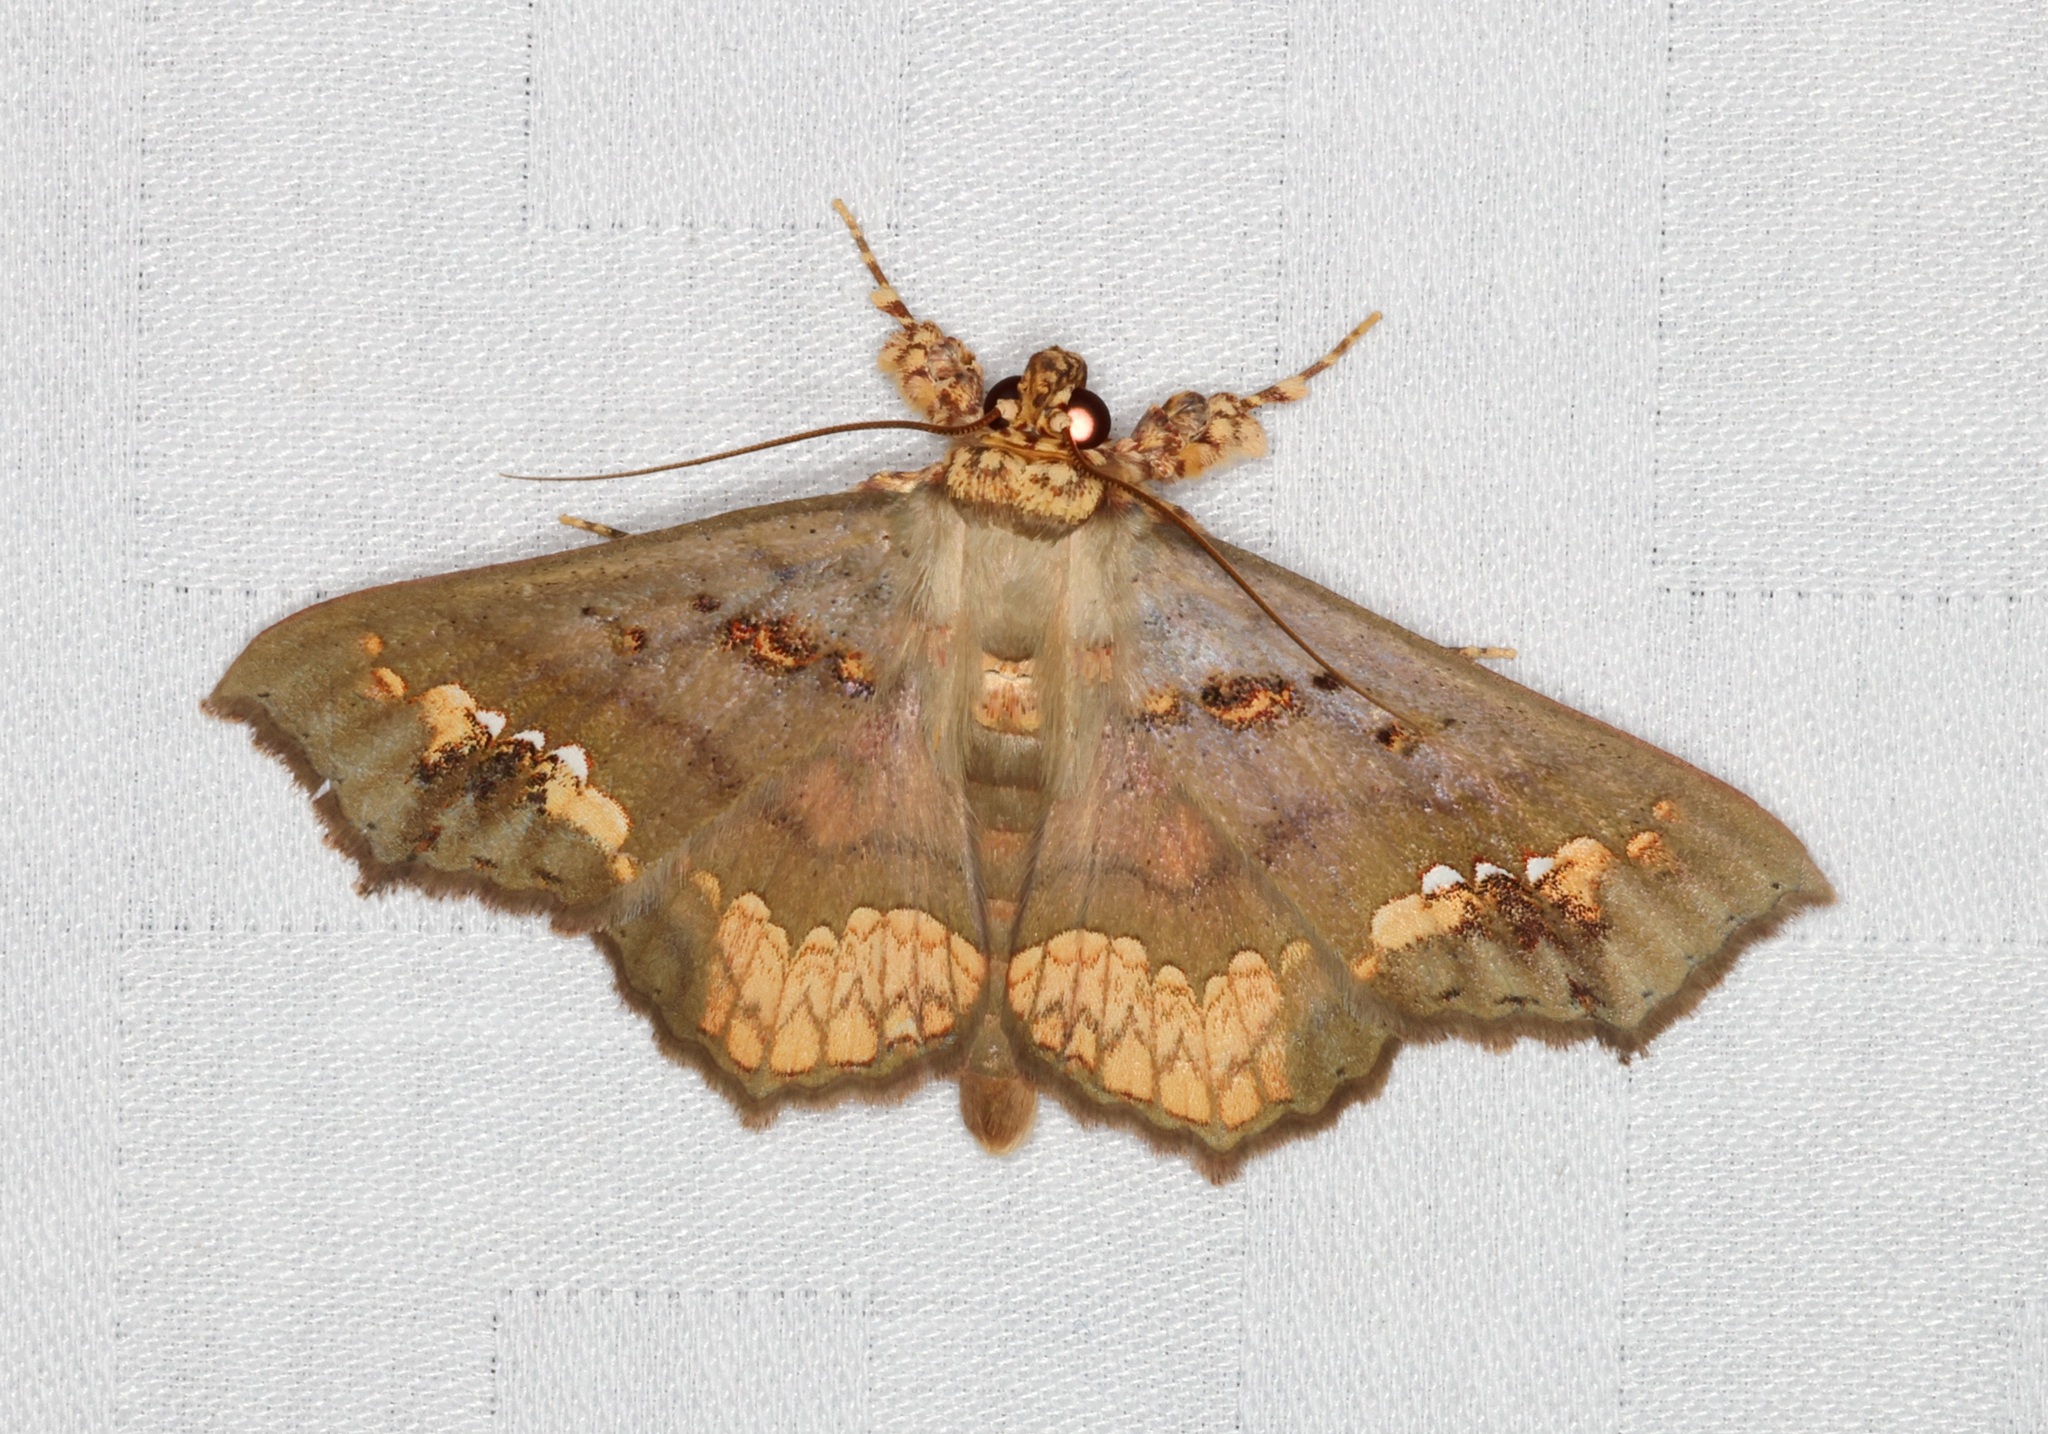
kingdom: Animalia
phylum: Arthropoda
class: Insecta
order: Lepidoptera
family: Erebidae
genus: Lopharthrum
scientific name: Lopharthrum comprimens
